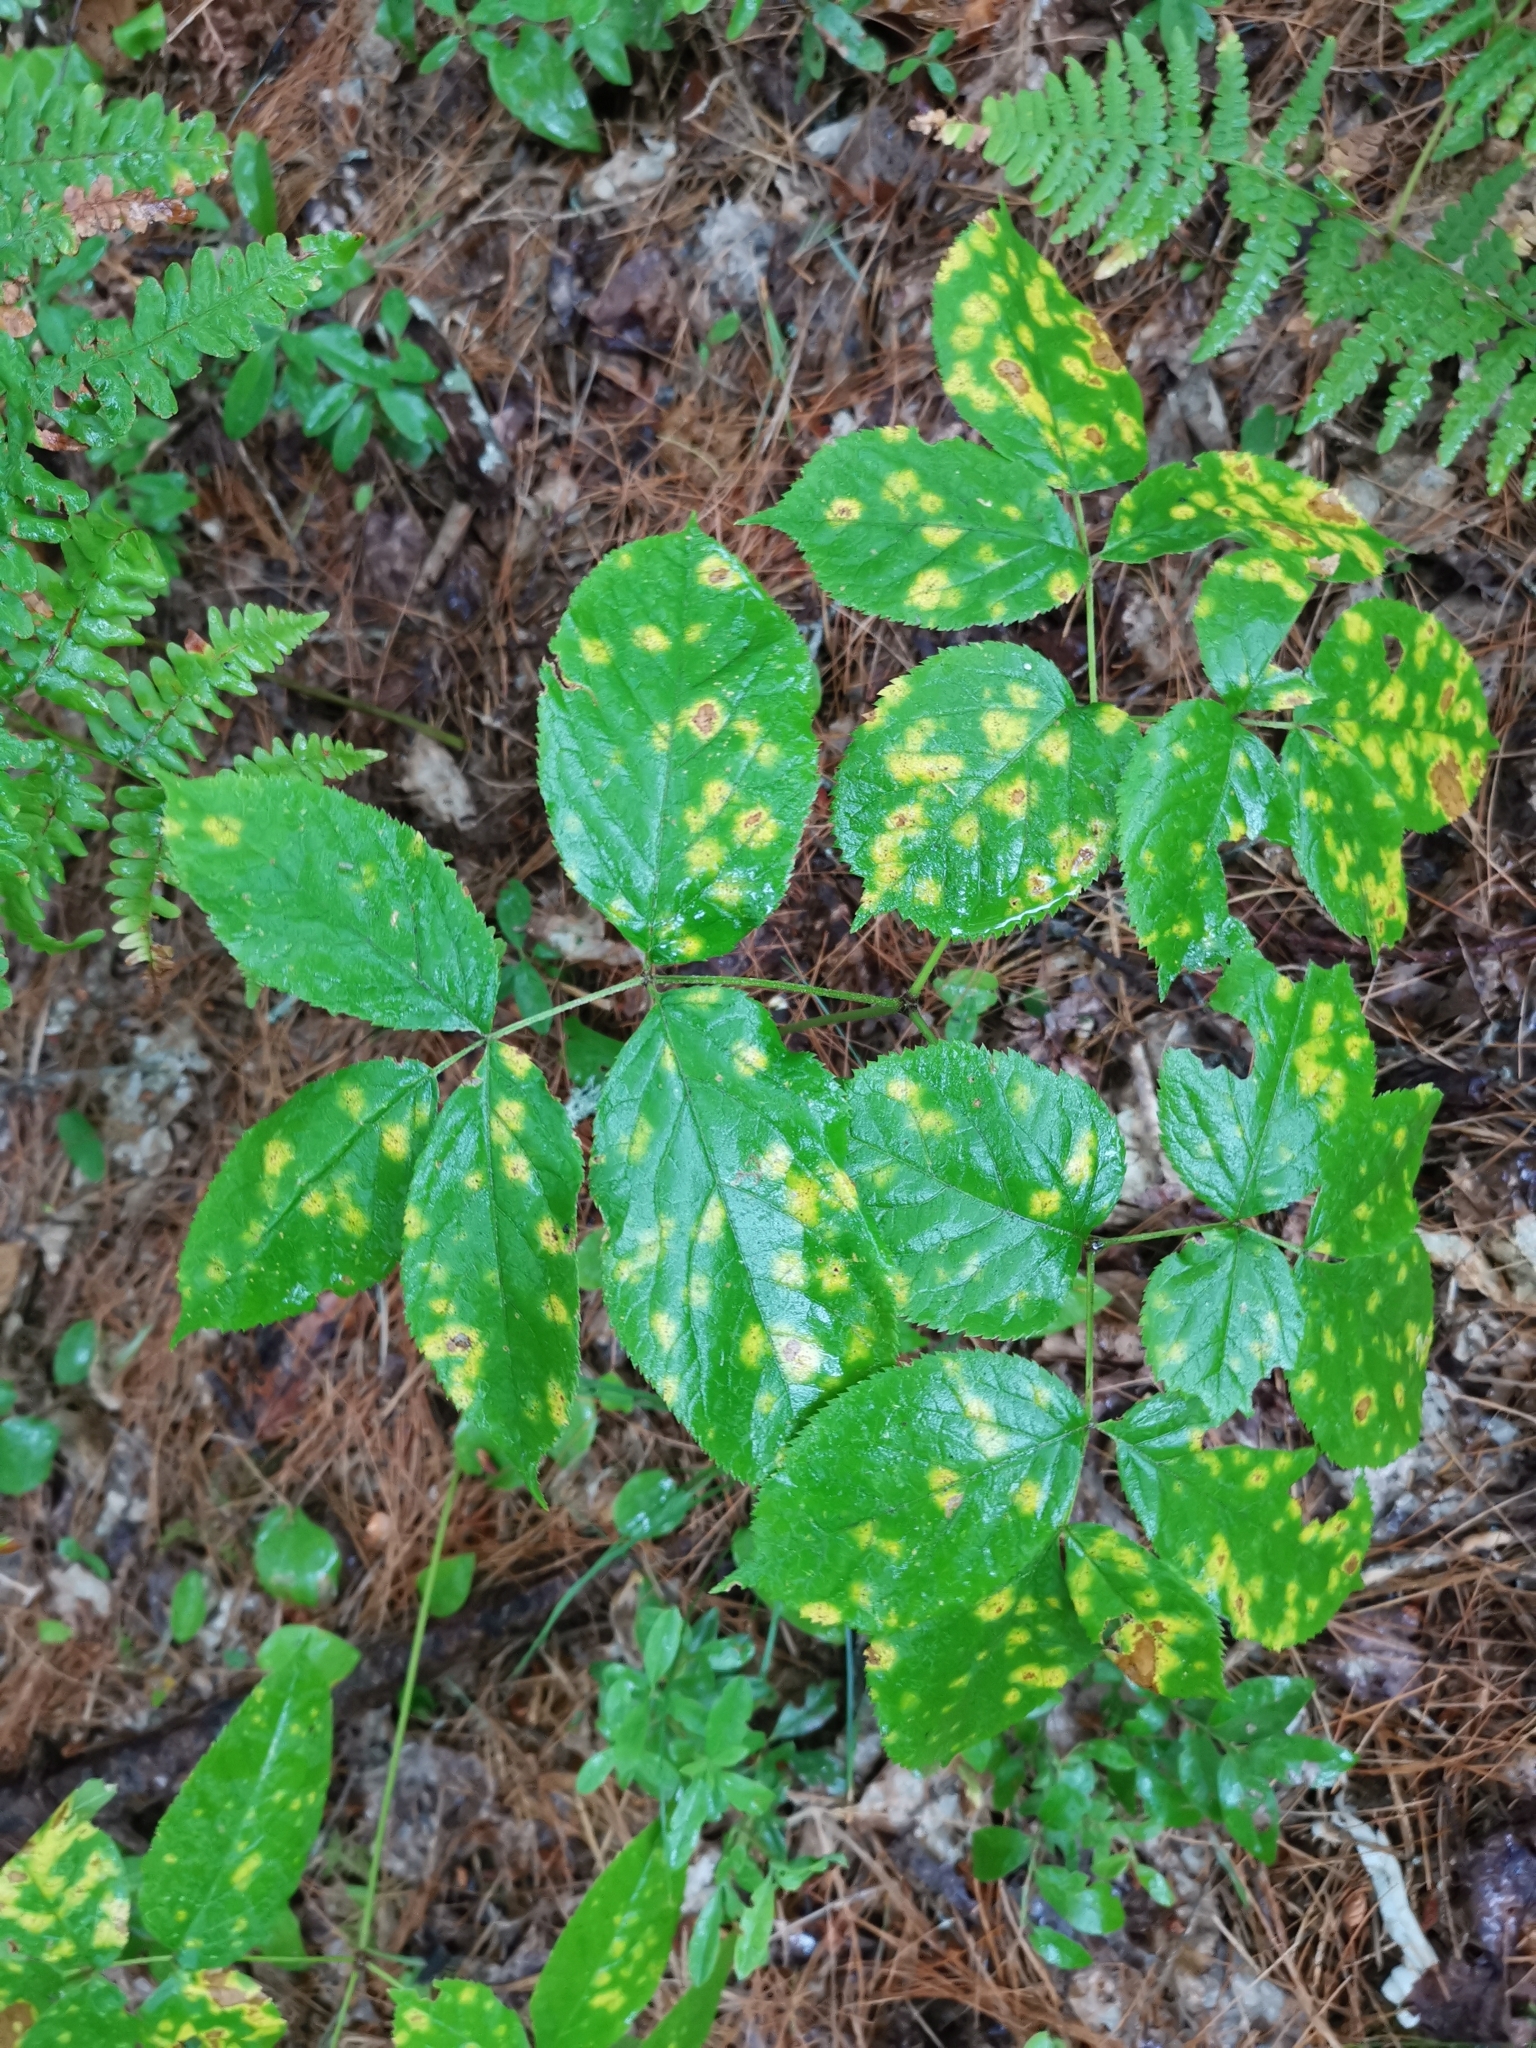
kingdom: Plantae
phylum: Tracheophyta
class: Magnoliopsida
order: Apiales
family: Araliaceae
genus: Aralia
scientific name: Aralia nudicaulis
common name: Wild sarsaparilla
